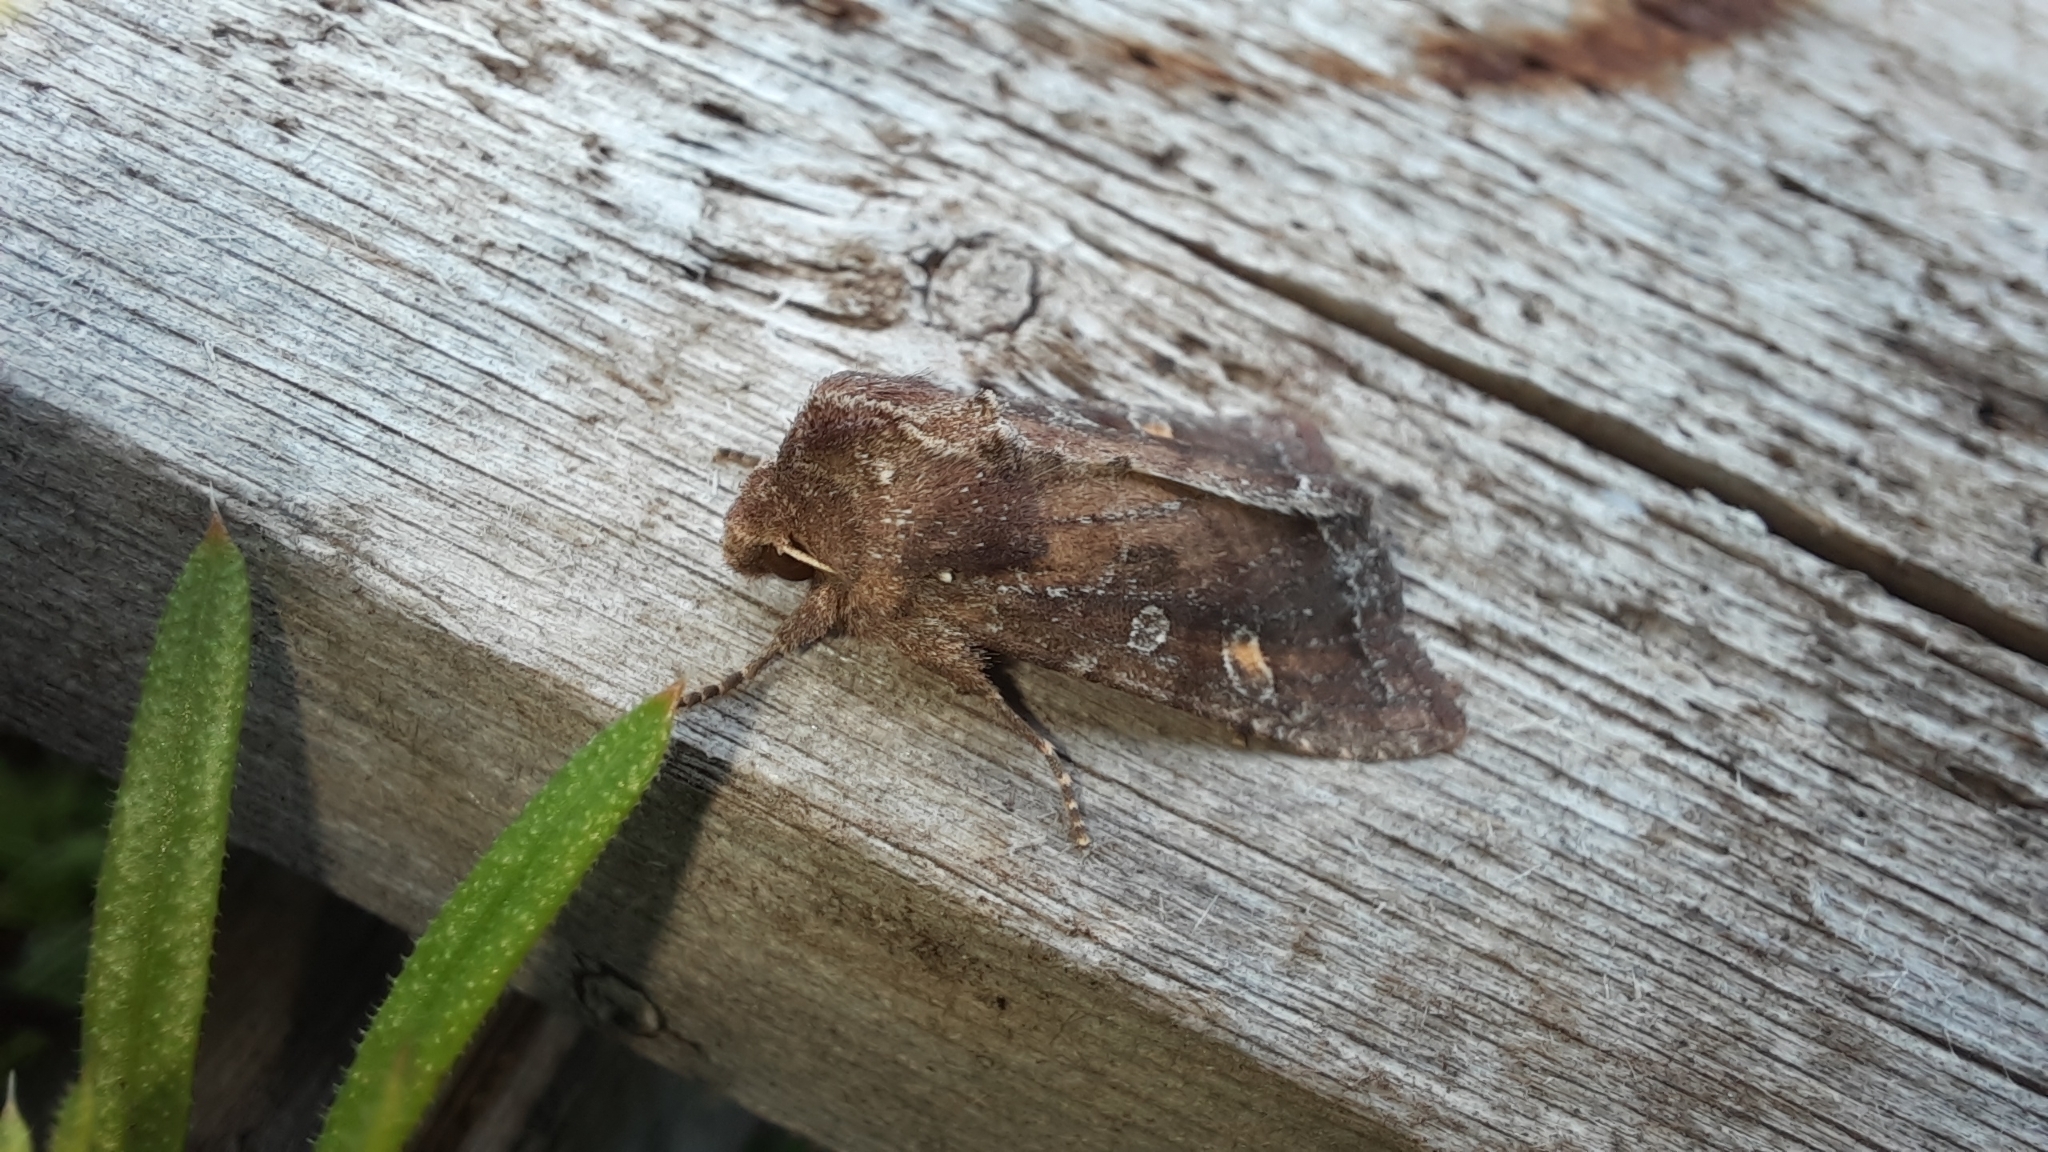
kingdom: Animalia
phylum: Arthropoda
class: Insecta
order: Lepidoptera
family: Noctuidae
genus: Lacanobia
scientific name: Lacanobia oleracea
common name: Bright-line brown-eye
